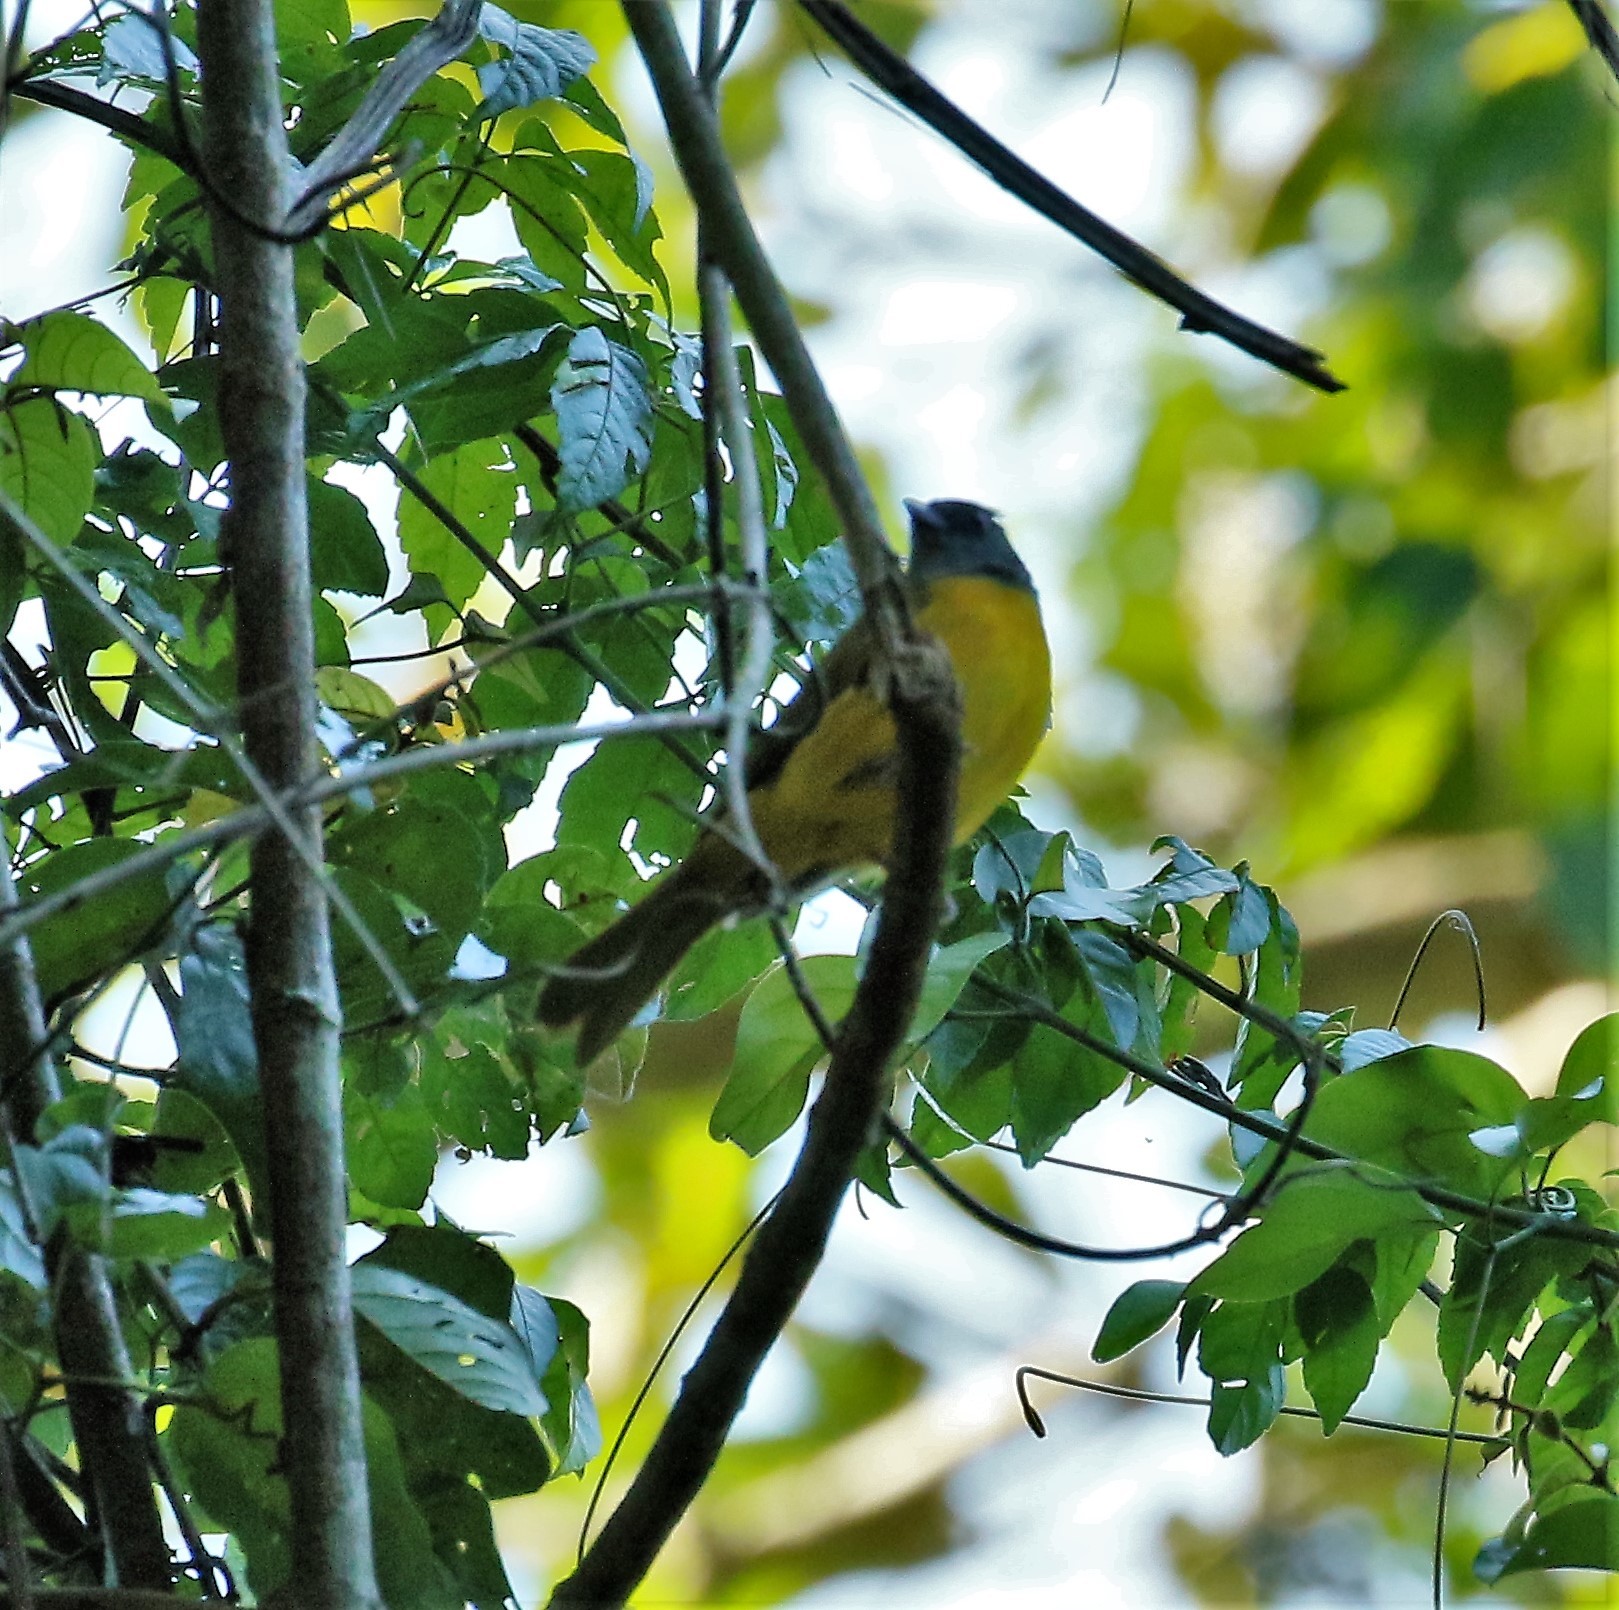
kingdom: Animalia
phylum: Chordata
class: Aves
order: Passeriformes
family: Thraupidae
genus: Eucometis
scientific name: Eucometis penicillata
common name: Grey-headed tanager
